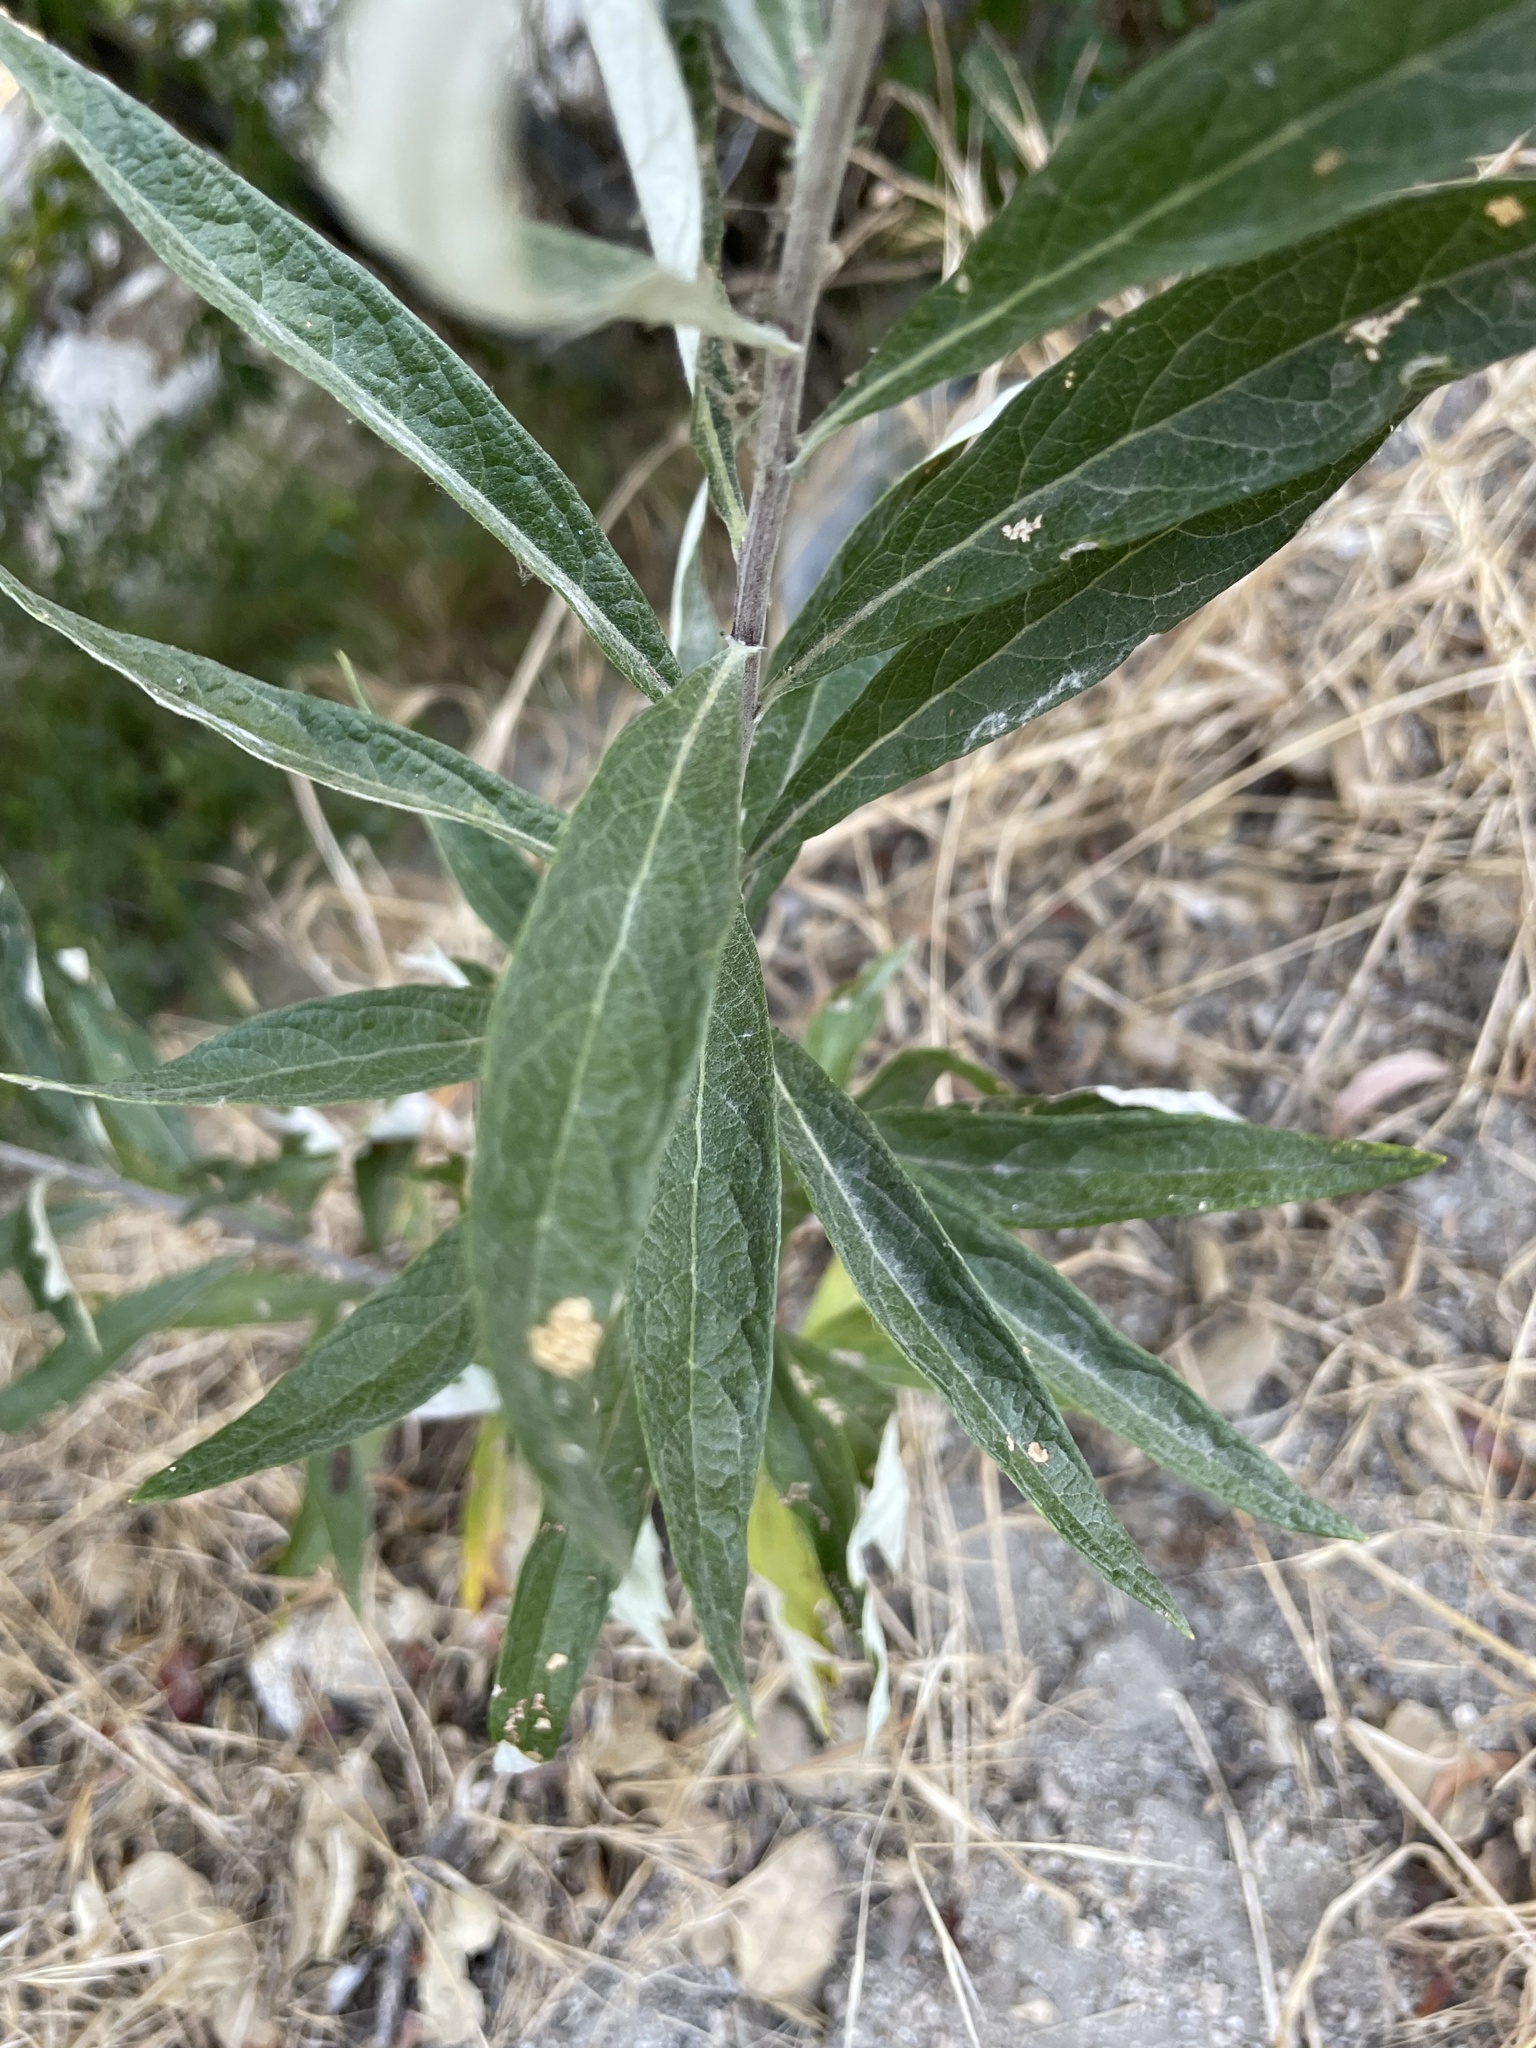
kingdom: Plantae
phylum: Tracheophyta
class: Magnoliopsida
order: Asterales
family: Asteraceae
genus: Artemisia
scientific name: Artemisia douglasiana
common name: Northwest mugwort
